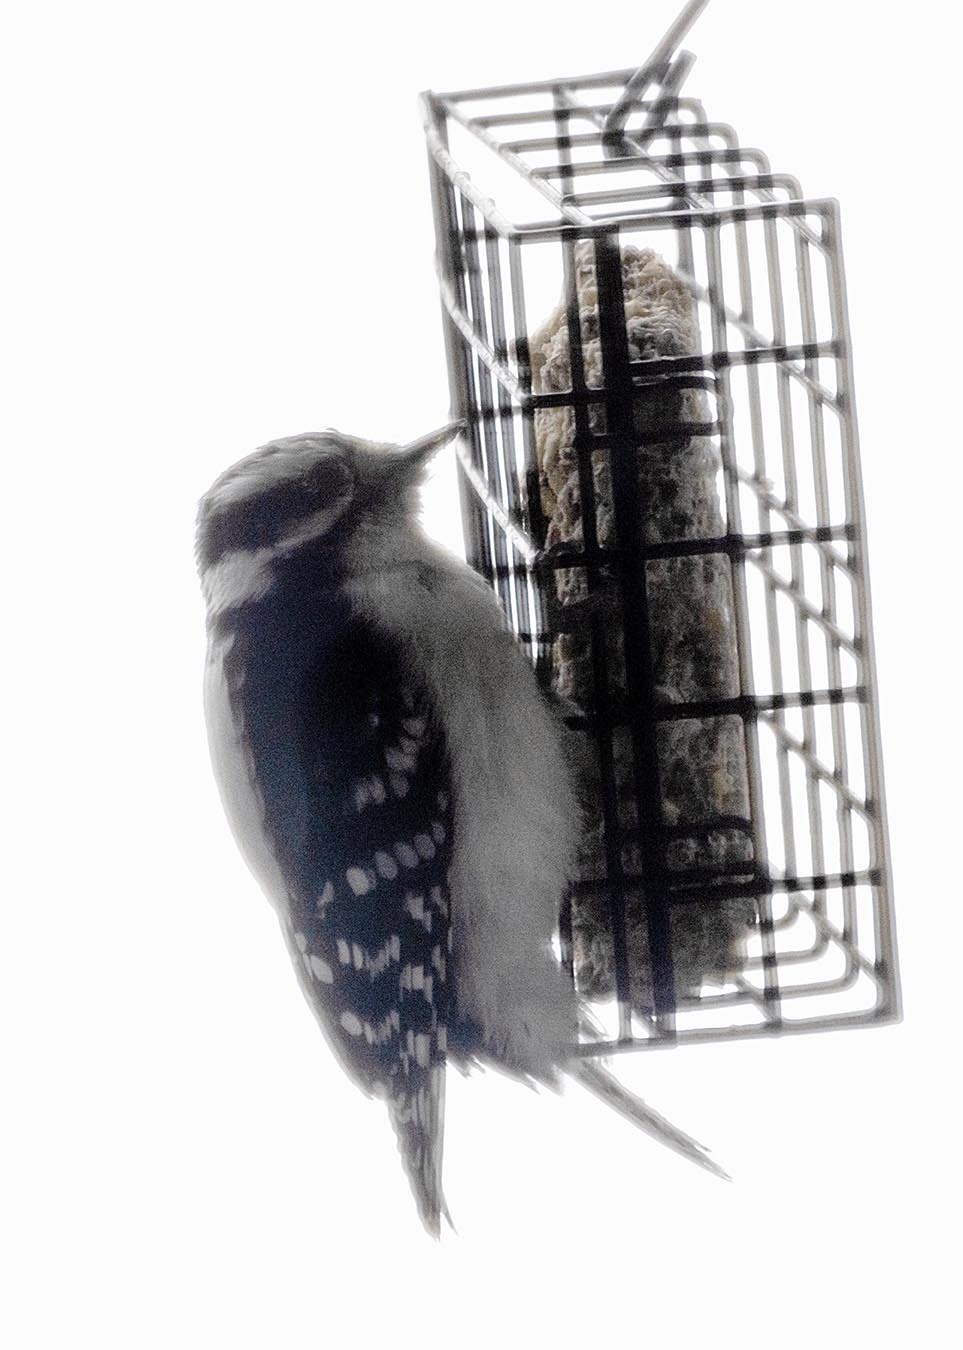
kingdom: Animalia
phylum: Chordata
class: Aves
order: Piciformes
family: Picidae
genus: Dryobates
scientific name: Dryobates pubescens
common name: Downy woodpecker
